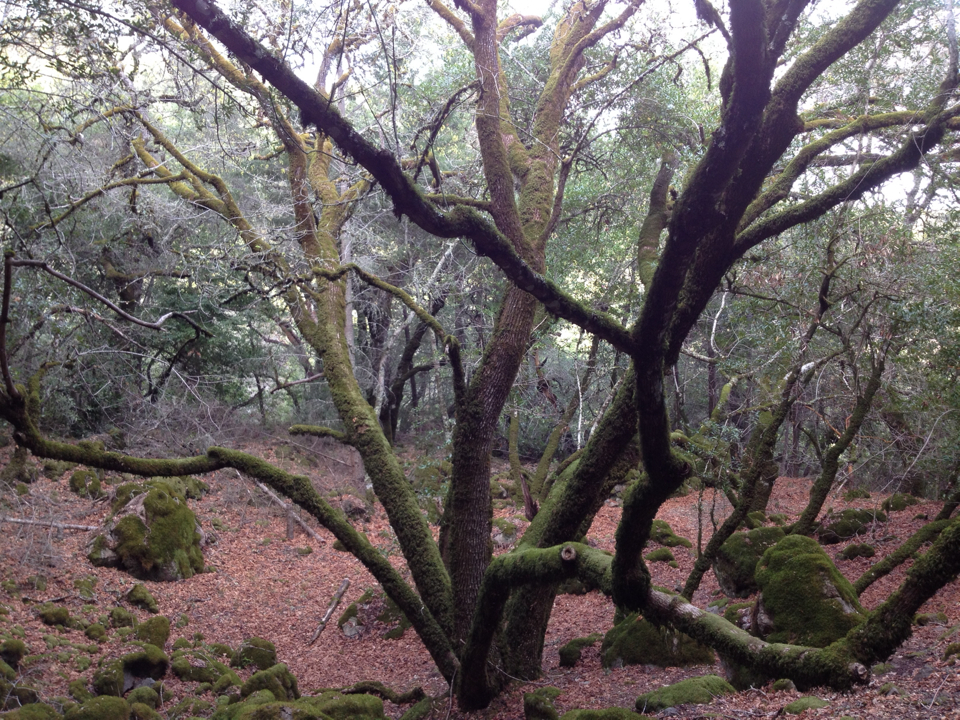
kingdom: Plantae
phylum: Tracheophyta
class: Magnoliopsida
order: Sapindales
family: Sapindaceae
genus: Acer
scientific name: Acer macrophyllum
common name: Oregon maple
